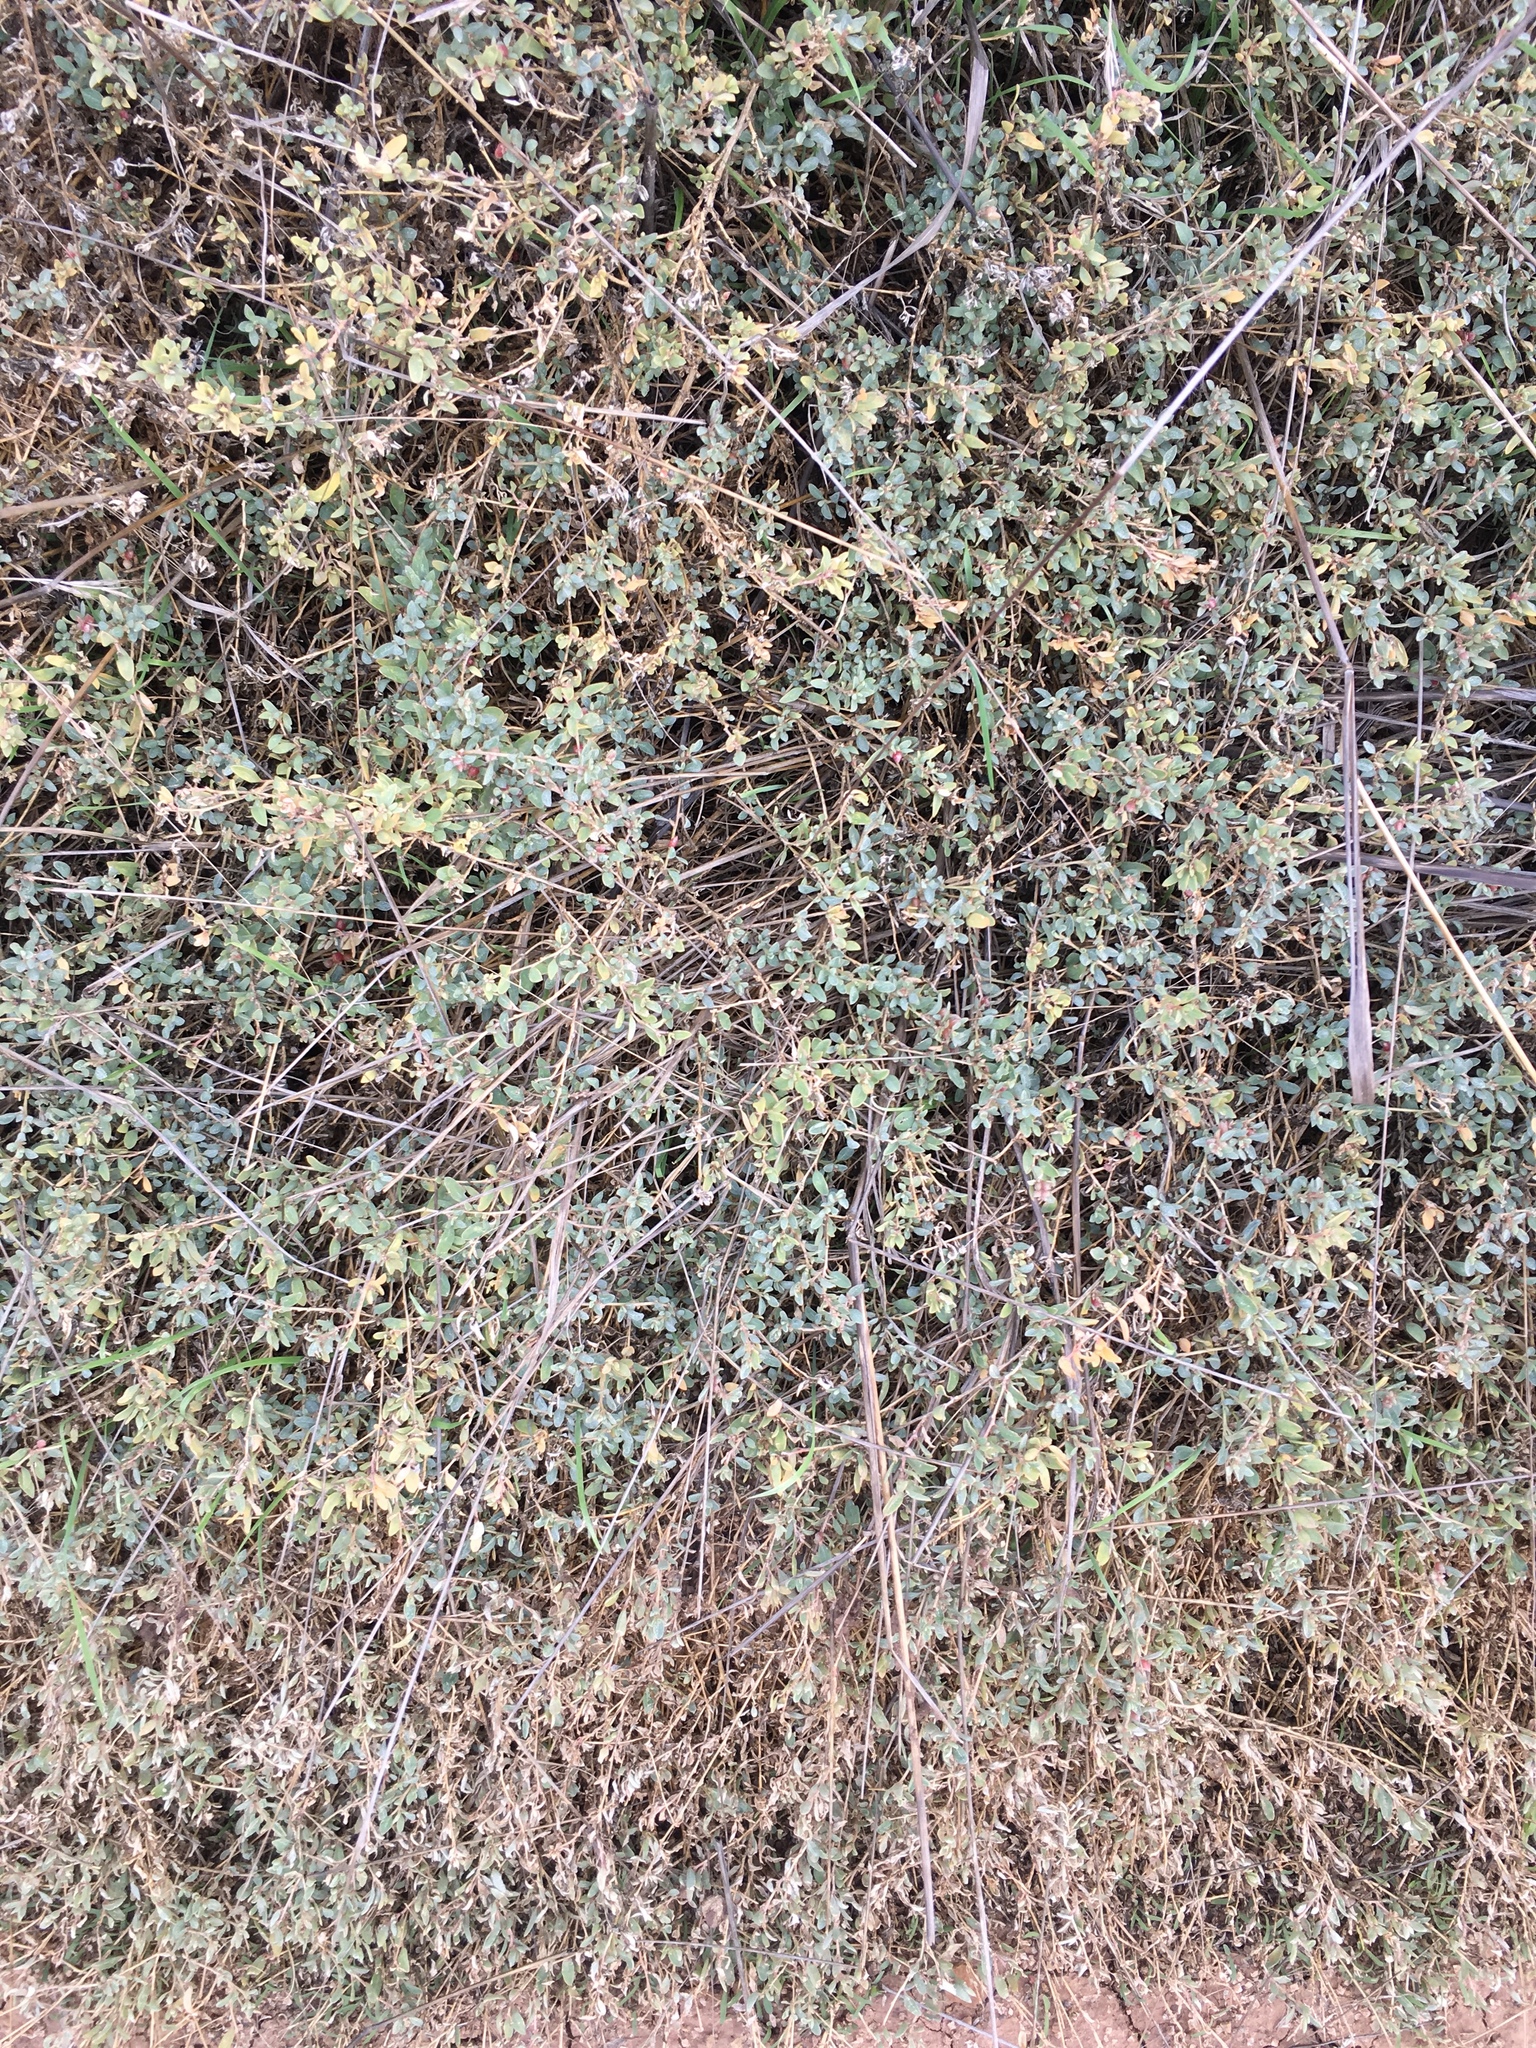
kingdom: Plantae
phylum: Tracheophyta
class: Magnoliopsida
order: Caryophyllales
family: Amaranthaceae
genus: Atriplex
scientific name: Atriplex semibaccata
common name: Australian saltbush
